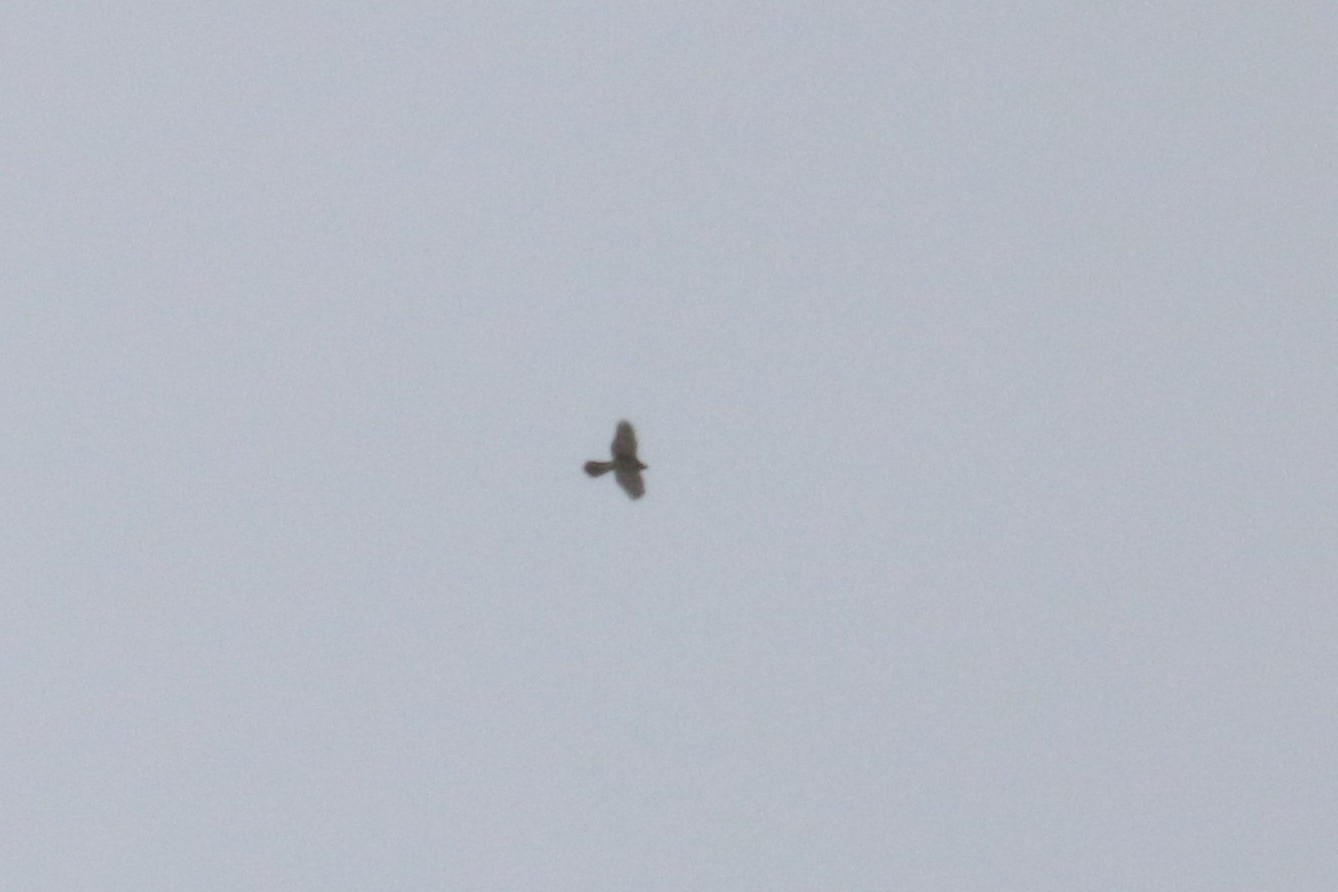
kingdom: Animalia
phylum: Chordata
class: Aves
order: Accipitriformes
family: Accipitridae
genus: Accipiter
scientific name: Accipiter gentilis
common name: Northern goshawk
